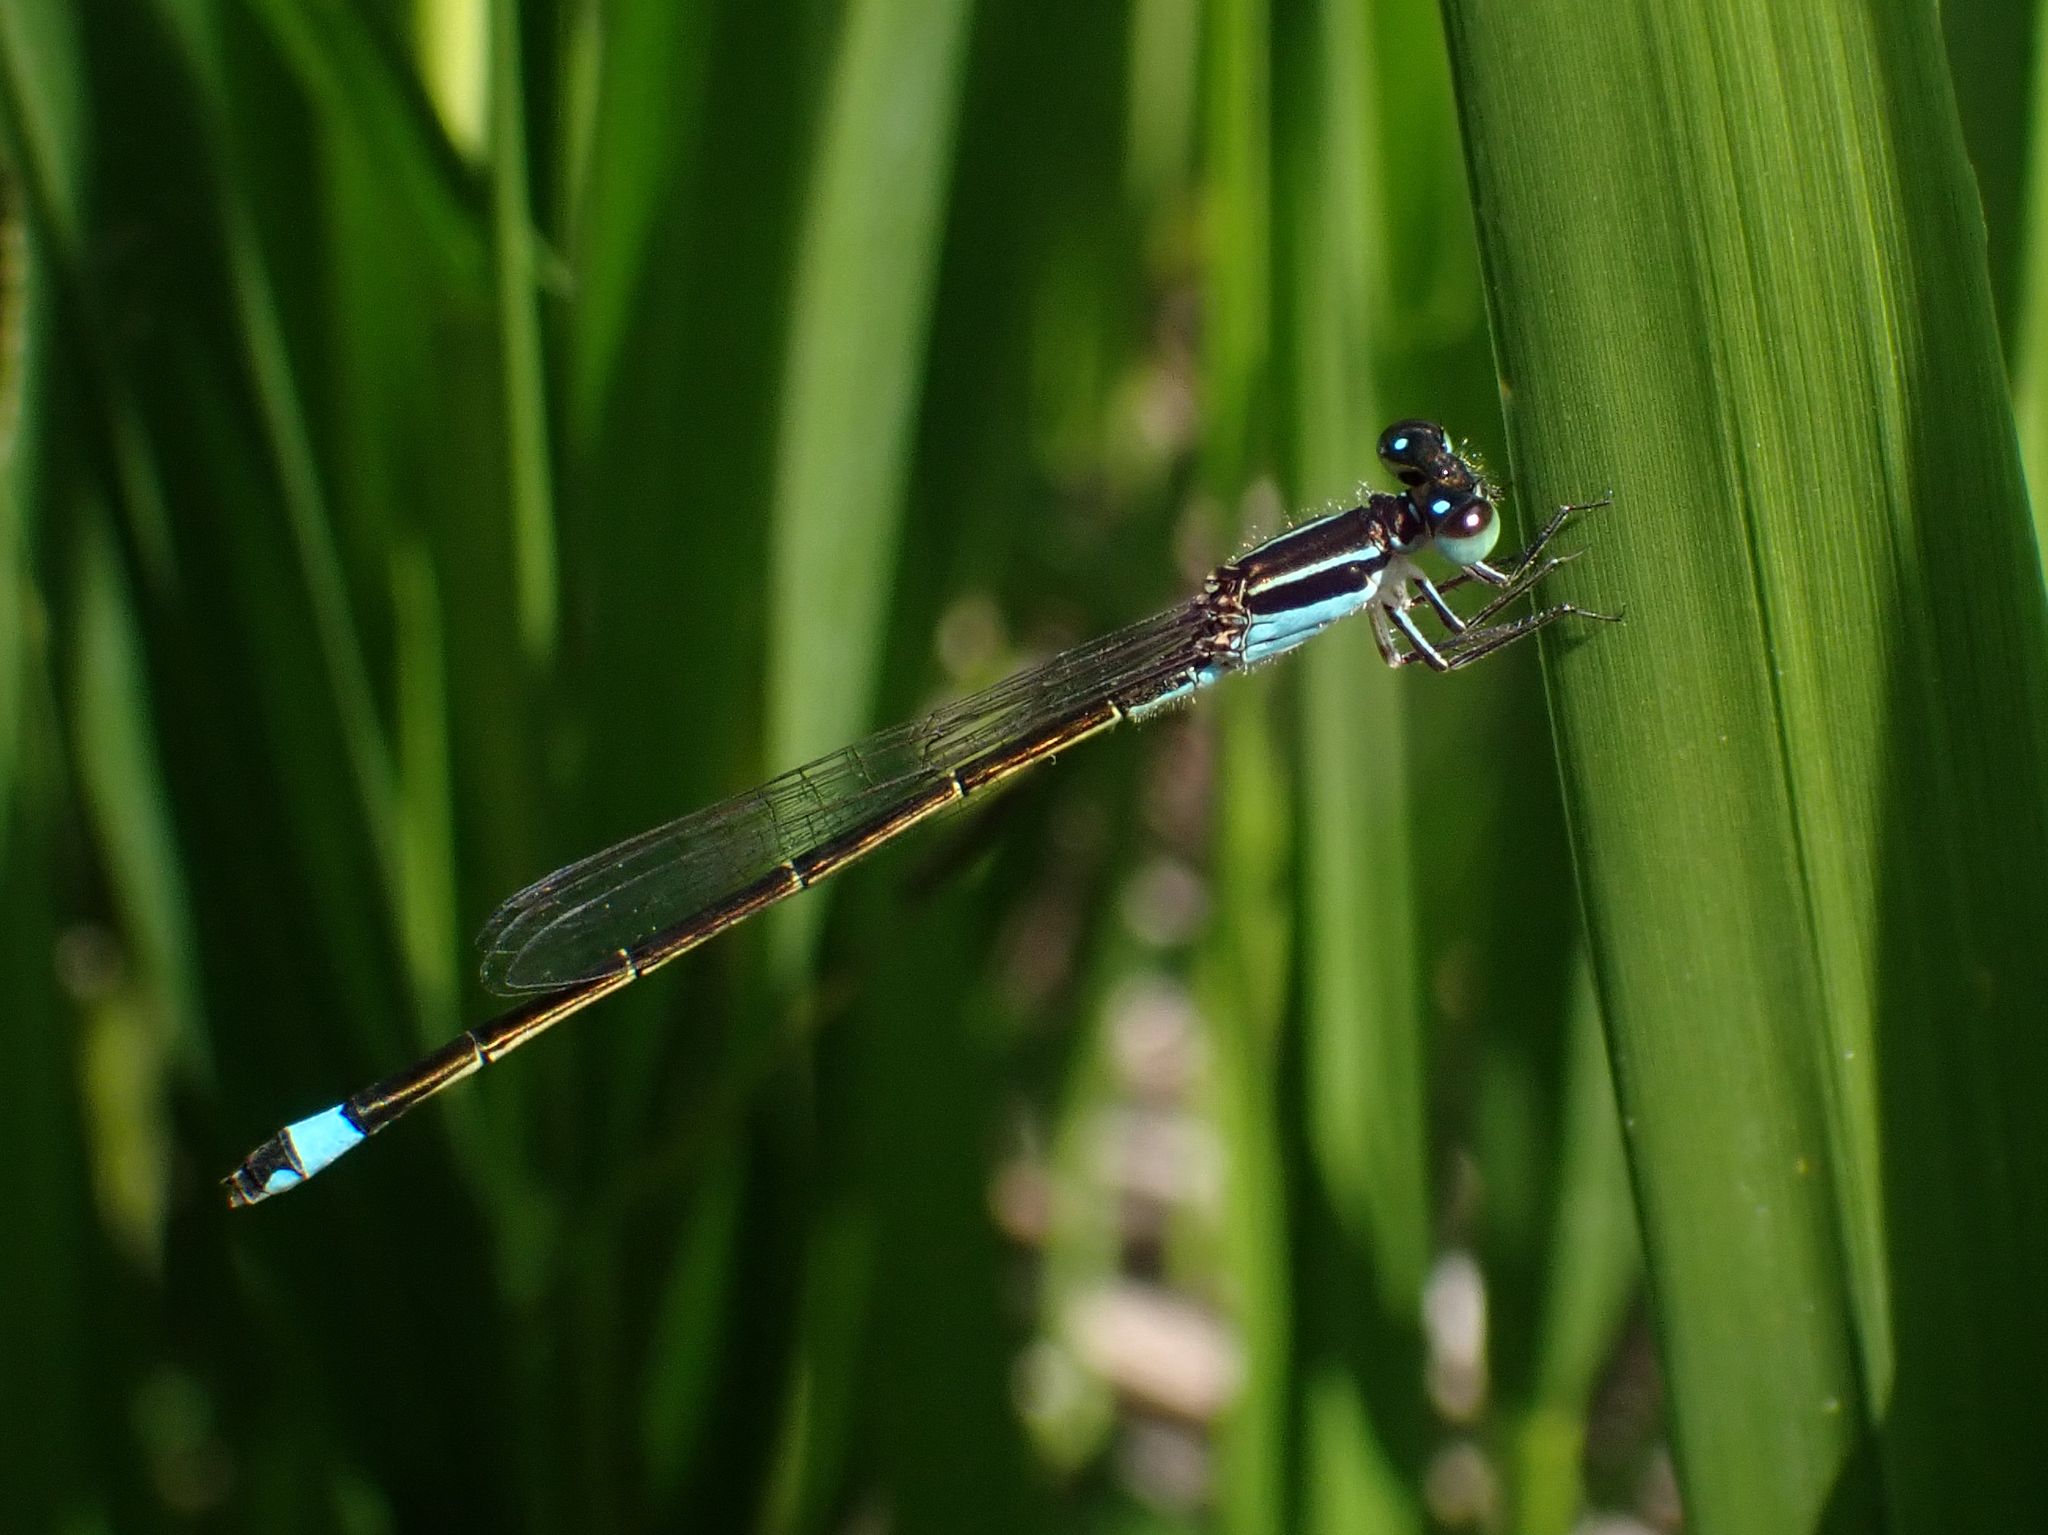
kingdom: Animalia
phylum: Arthropoda
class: Insecta
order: Odonata
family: Coenagrionidae
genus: Ischnura
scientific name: Ischnura ramburii
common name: Rambur's forktail
